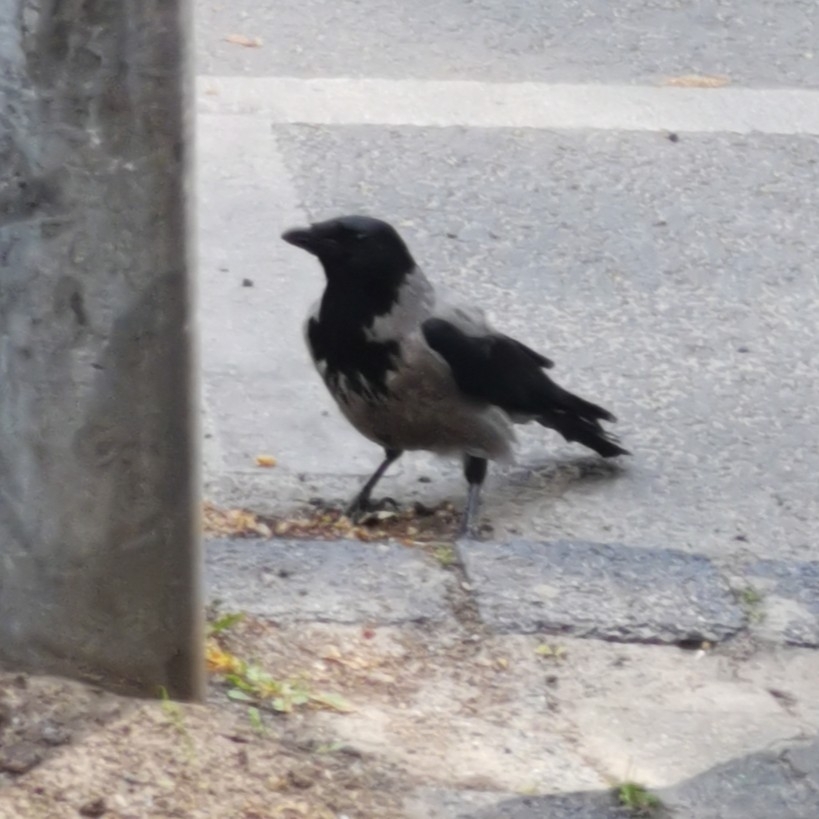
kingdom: Animalia
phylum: Chordata
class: Aves
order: Passeriformes
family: Corvidae
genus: Corvus
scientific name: Corvus cornix
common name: Hooded crow
